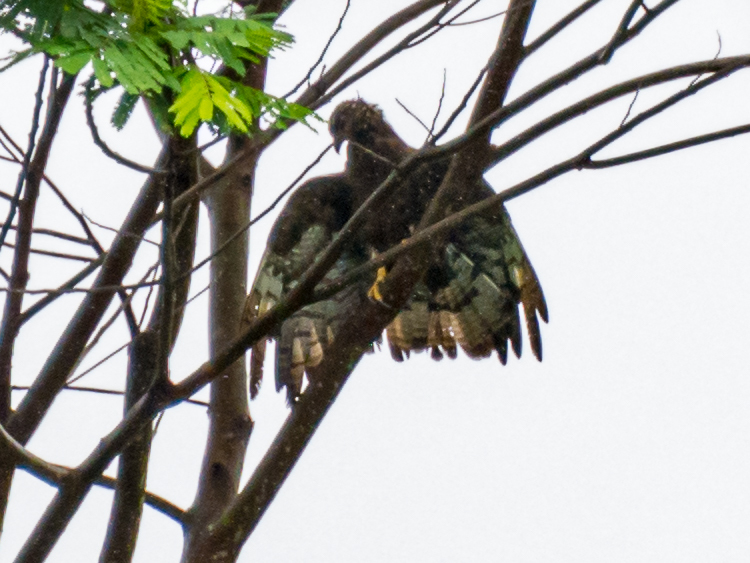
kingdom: Animalia
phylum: Chordata
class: Aves
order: Accipitriformes
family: Accipitridae
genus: Pernis
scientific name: Pernis ptilorhynchus
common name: Crested honey buzzard
